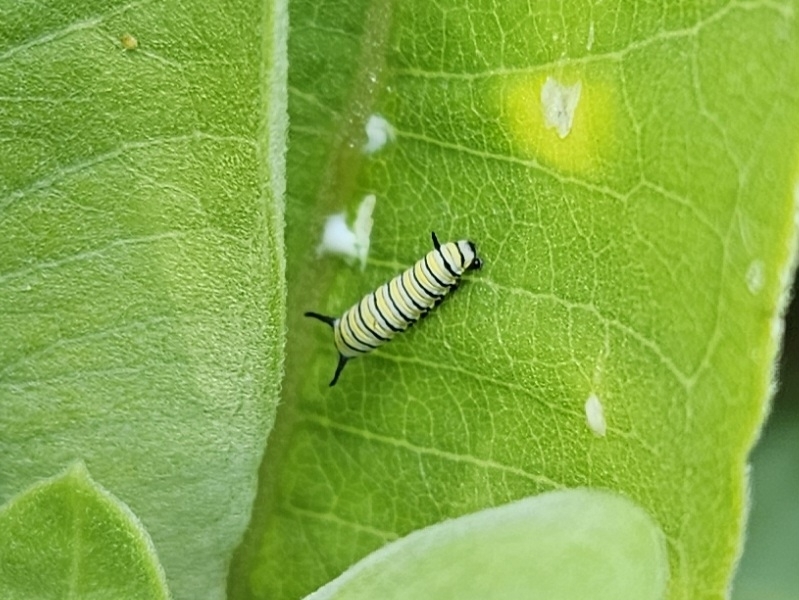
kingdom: Animalia
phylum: Arthropoda
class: Insecta
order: Lepidoptera
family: Nymphalidae
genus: Danaus
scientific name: Danaus plexippus
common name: Monarch
